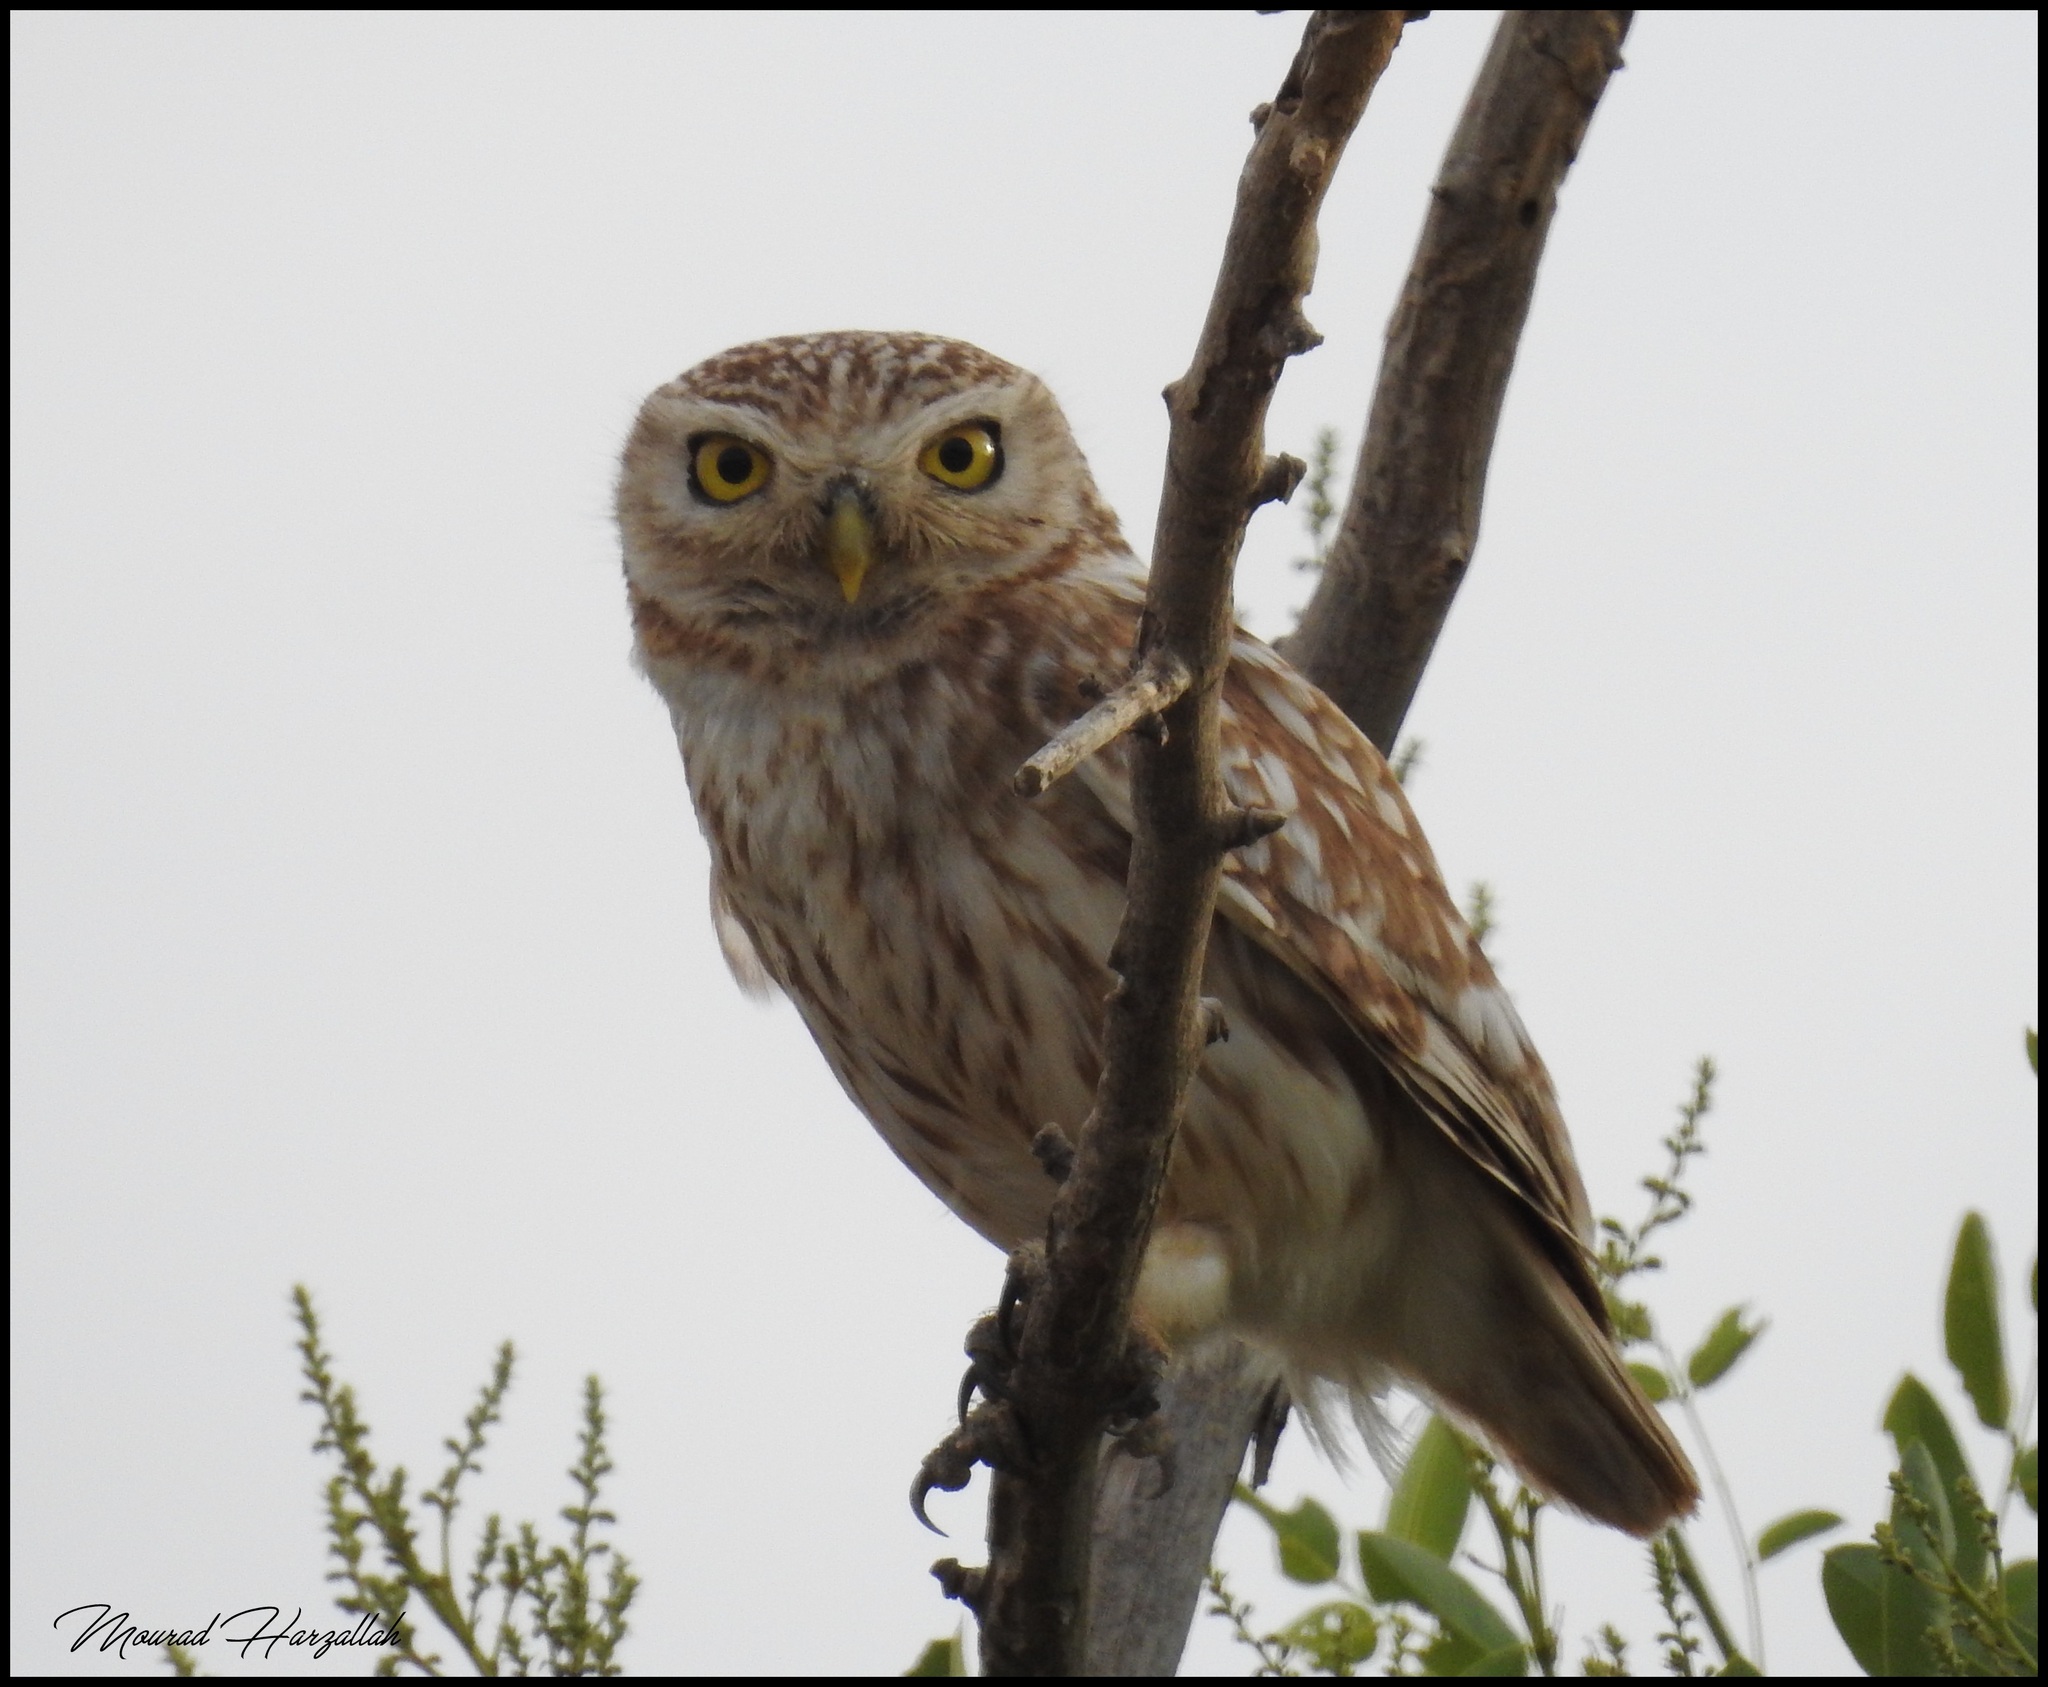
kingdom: Animalia
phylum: Chordata
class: Aves
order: Strigiformes
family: Strigidae
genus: Athene
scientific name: Athene noctua
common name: Little owl
